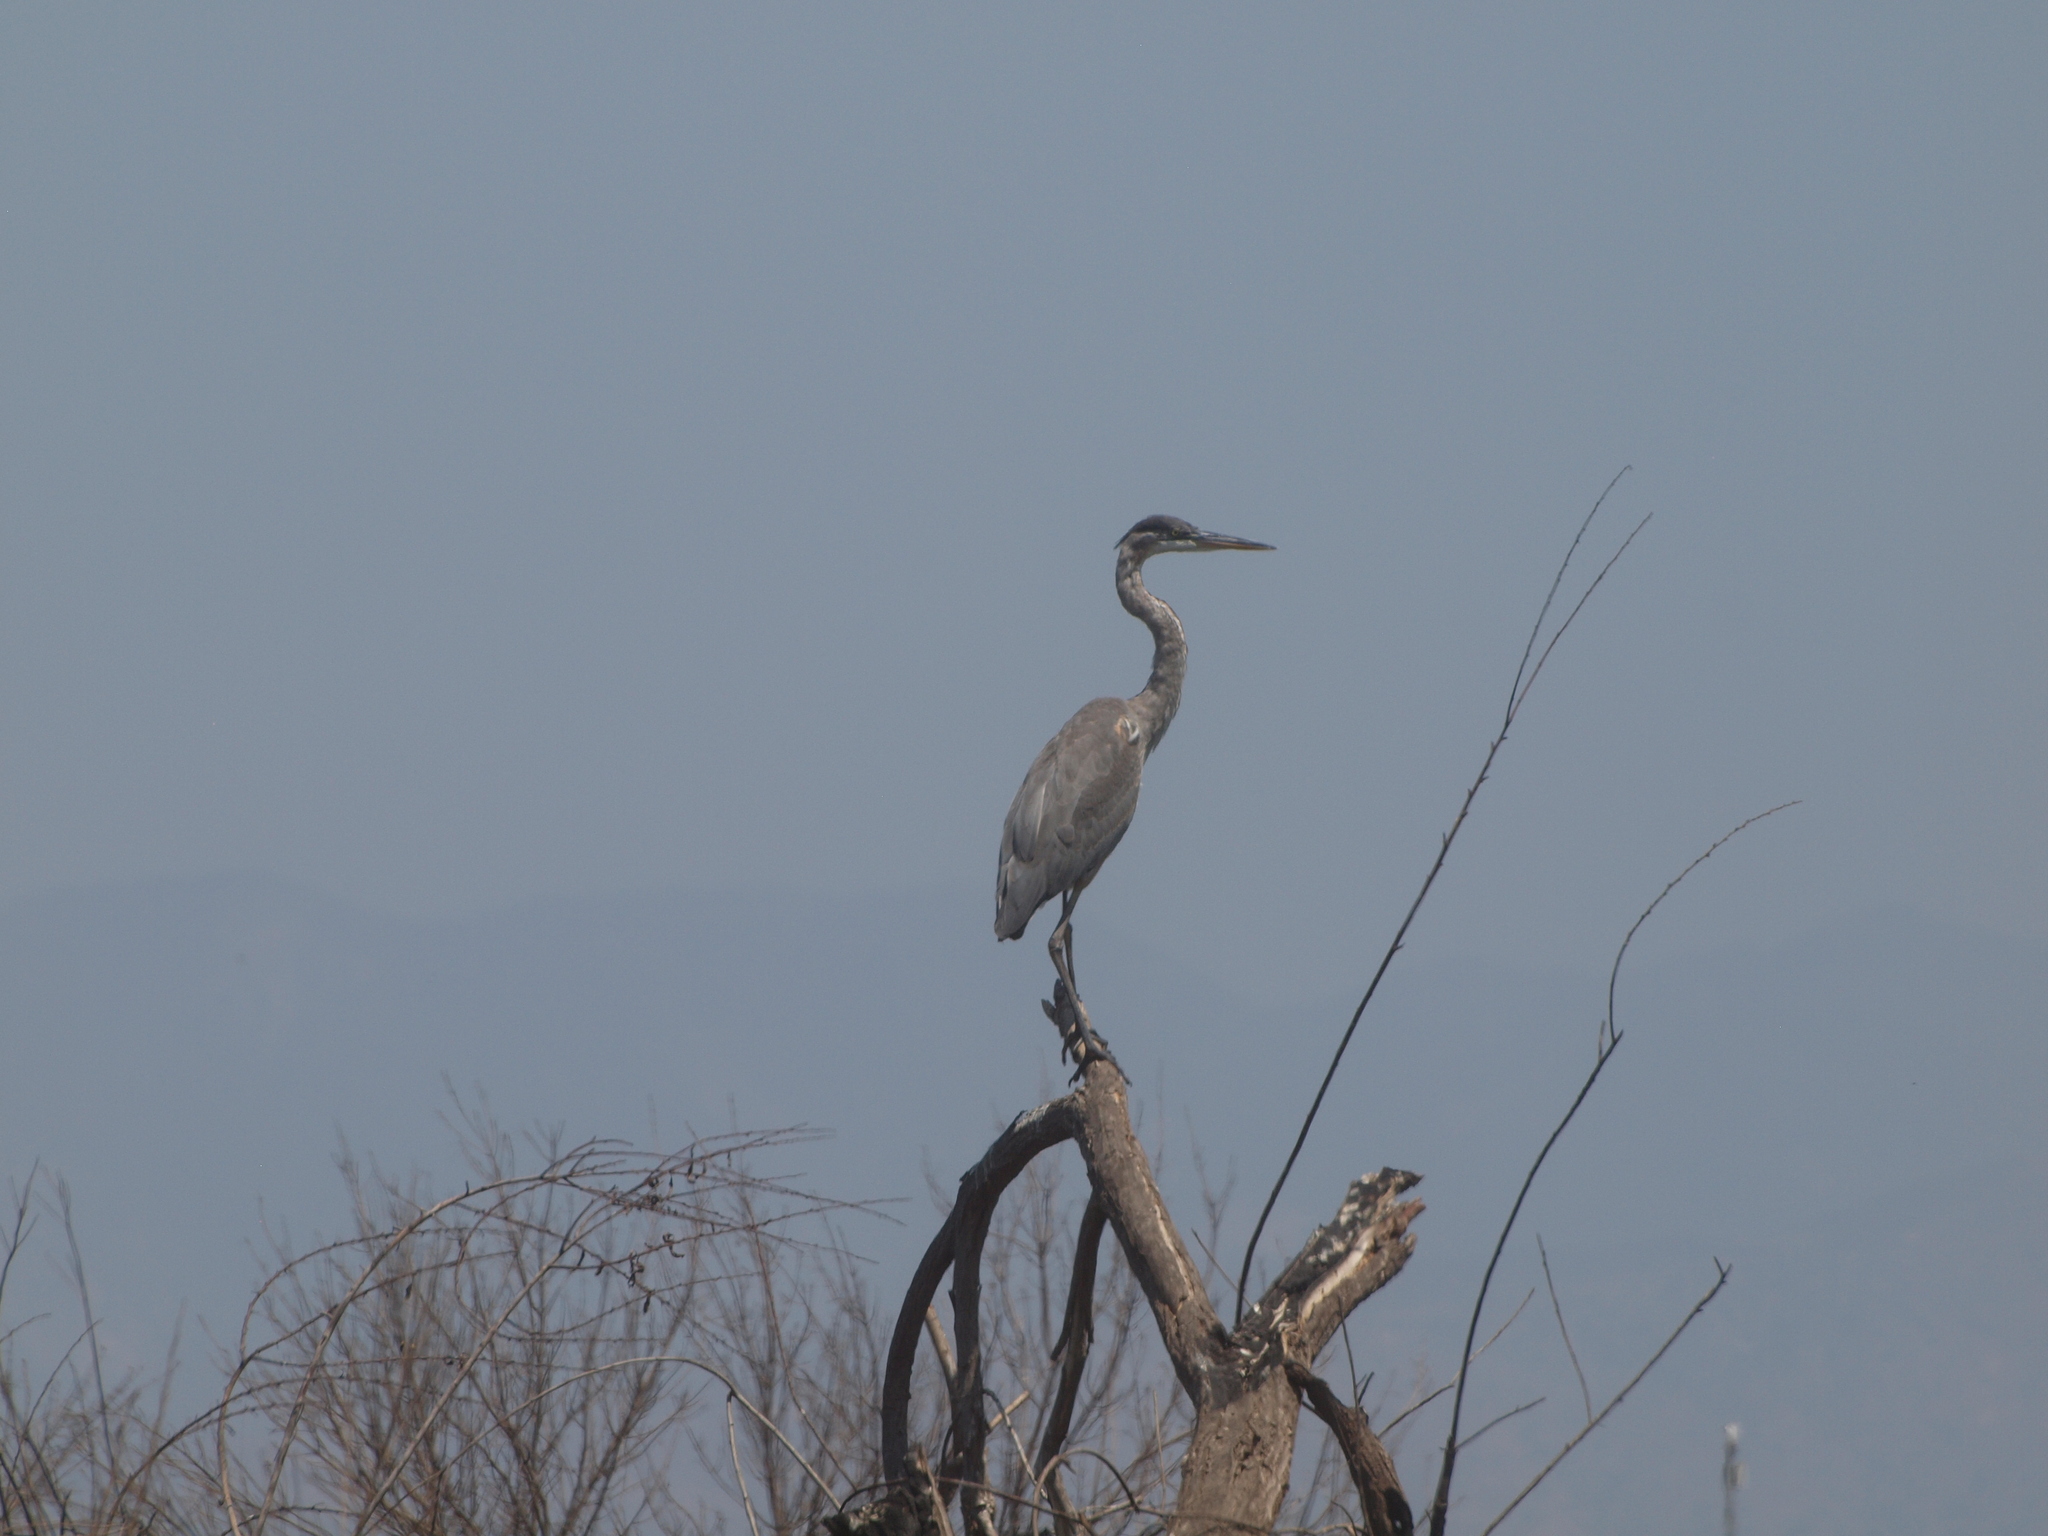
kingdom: Animalia
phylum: Chordata
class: Aves
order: Pelecaniformes
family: Ardeidae
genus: Ardea
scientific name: Ardea herodias
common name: Great blue heron
